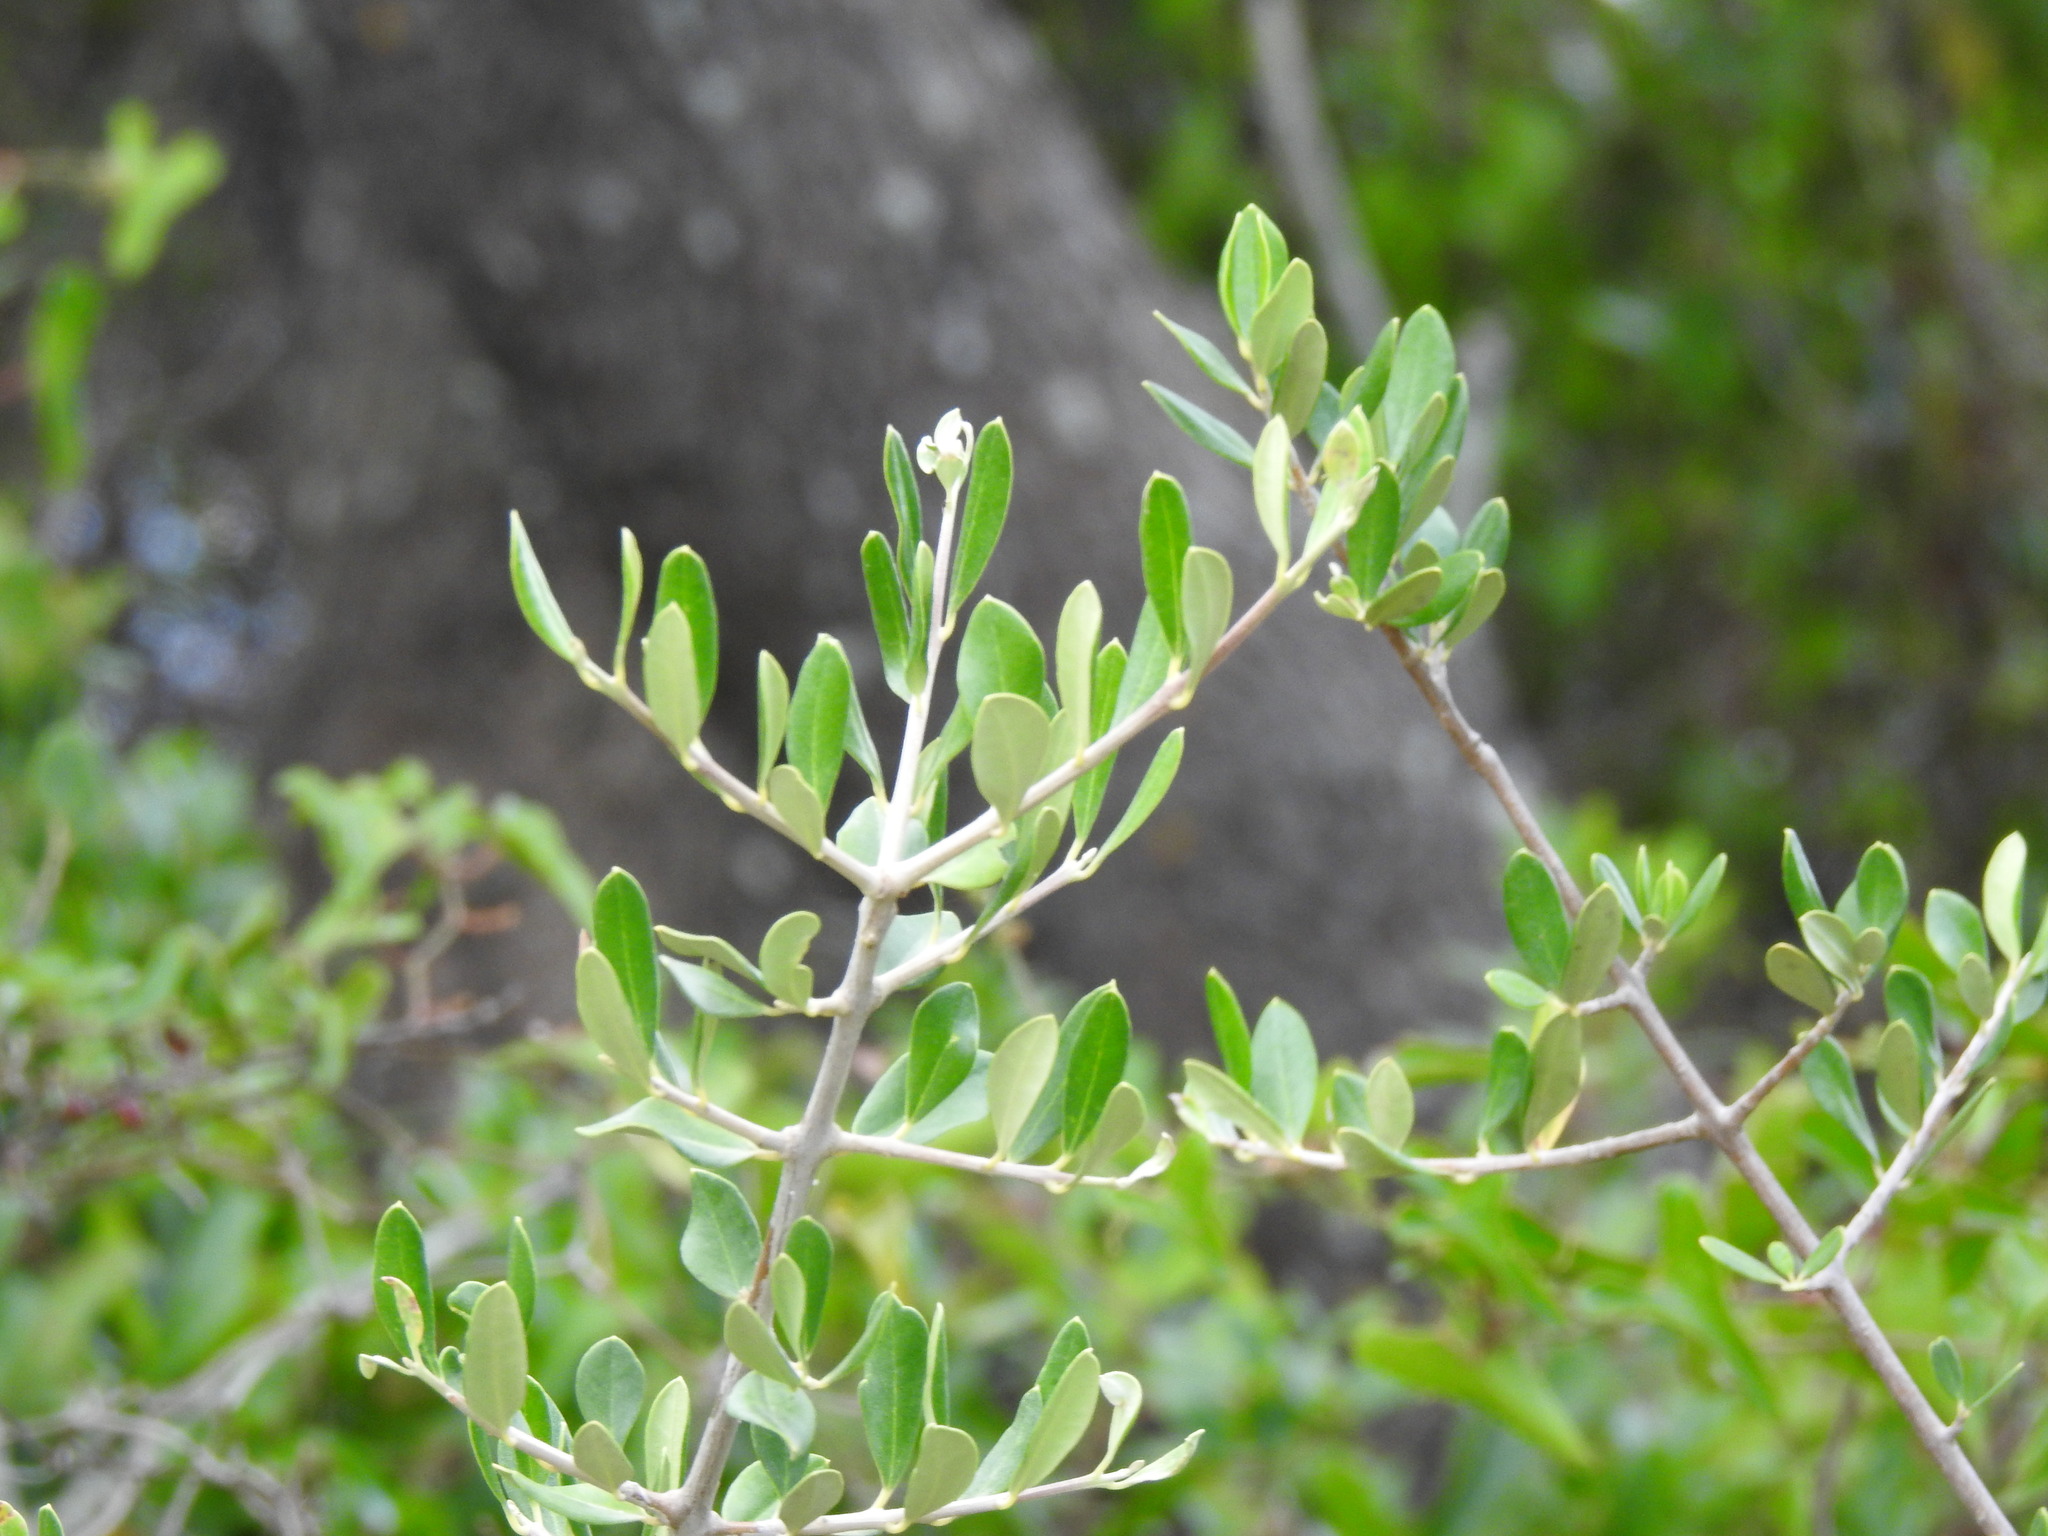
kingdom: Plantae
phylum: Tracheophyta
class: Magnoliopsida
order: Lamiales
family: Oleaceae
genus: Olea
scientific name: Olea europaea
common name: Olive
